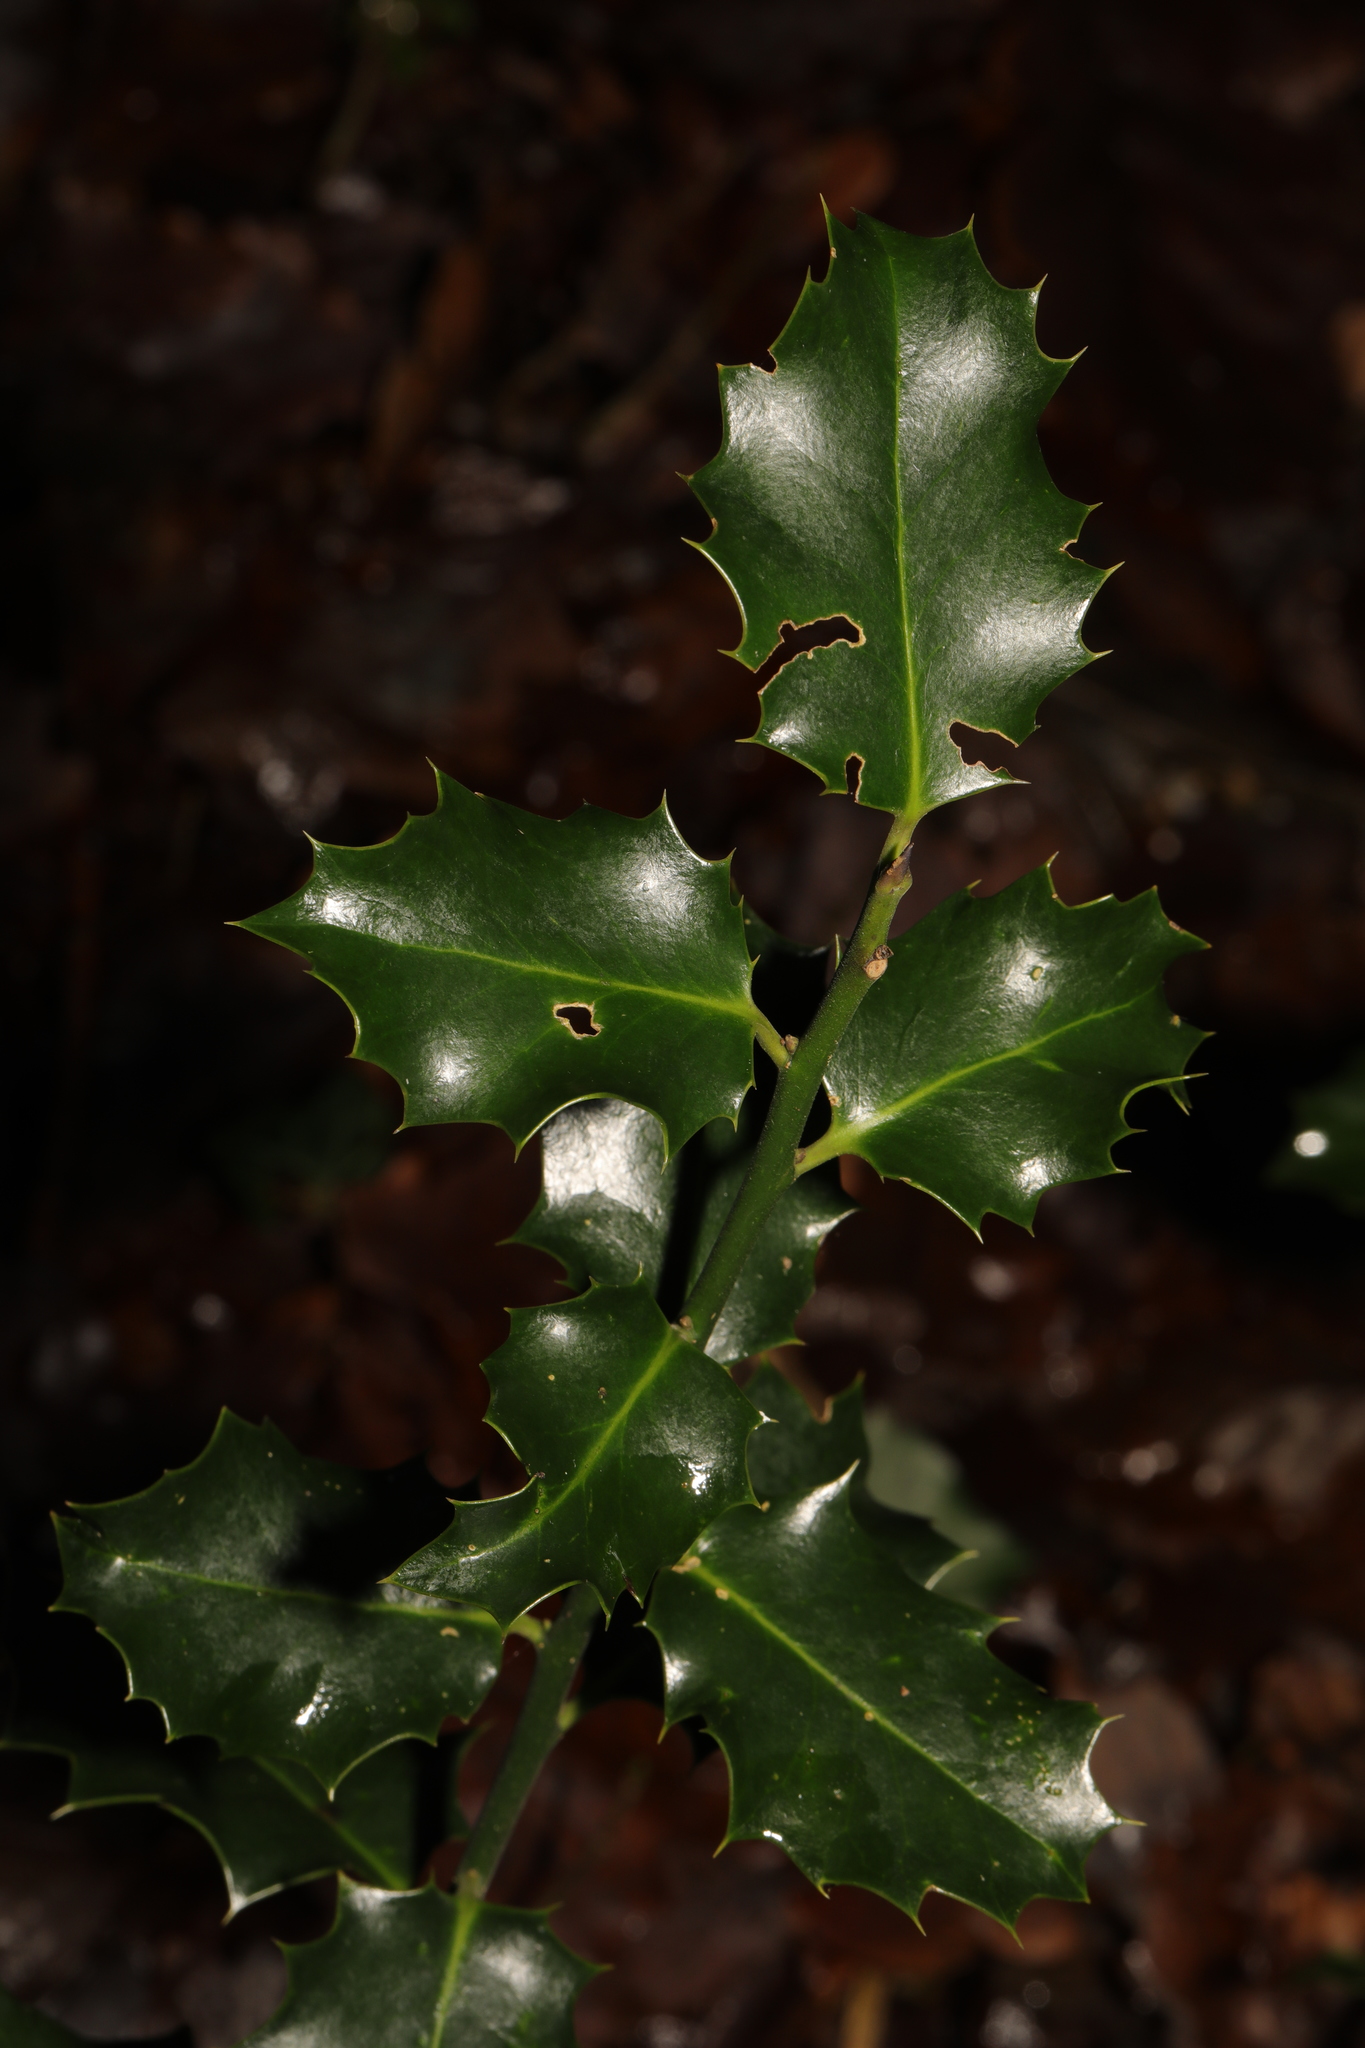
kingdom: Plantae
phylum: Tracheophyta
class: Magnoliopsida
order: Aquifoliales
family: Aquifoliaceae
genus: Ilex
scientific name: Ilex aquifolium
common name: English holly
